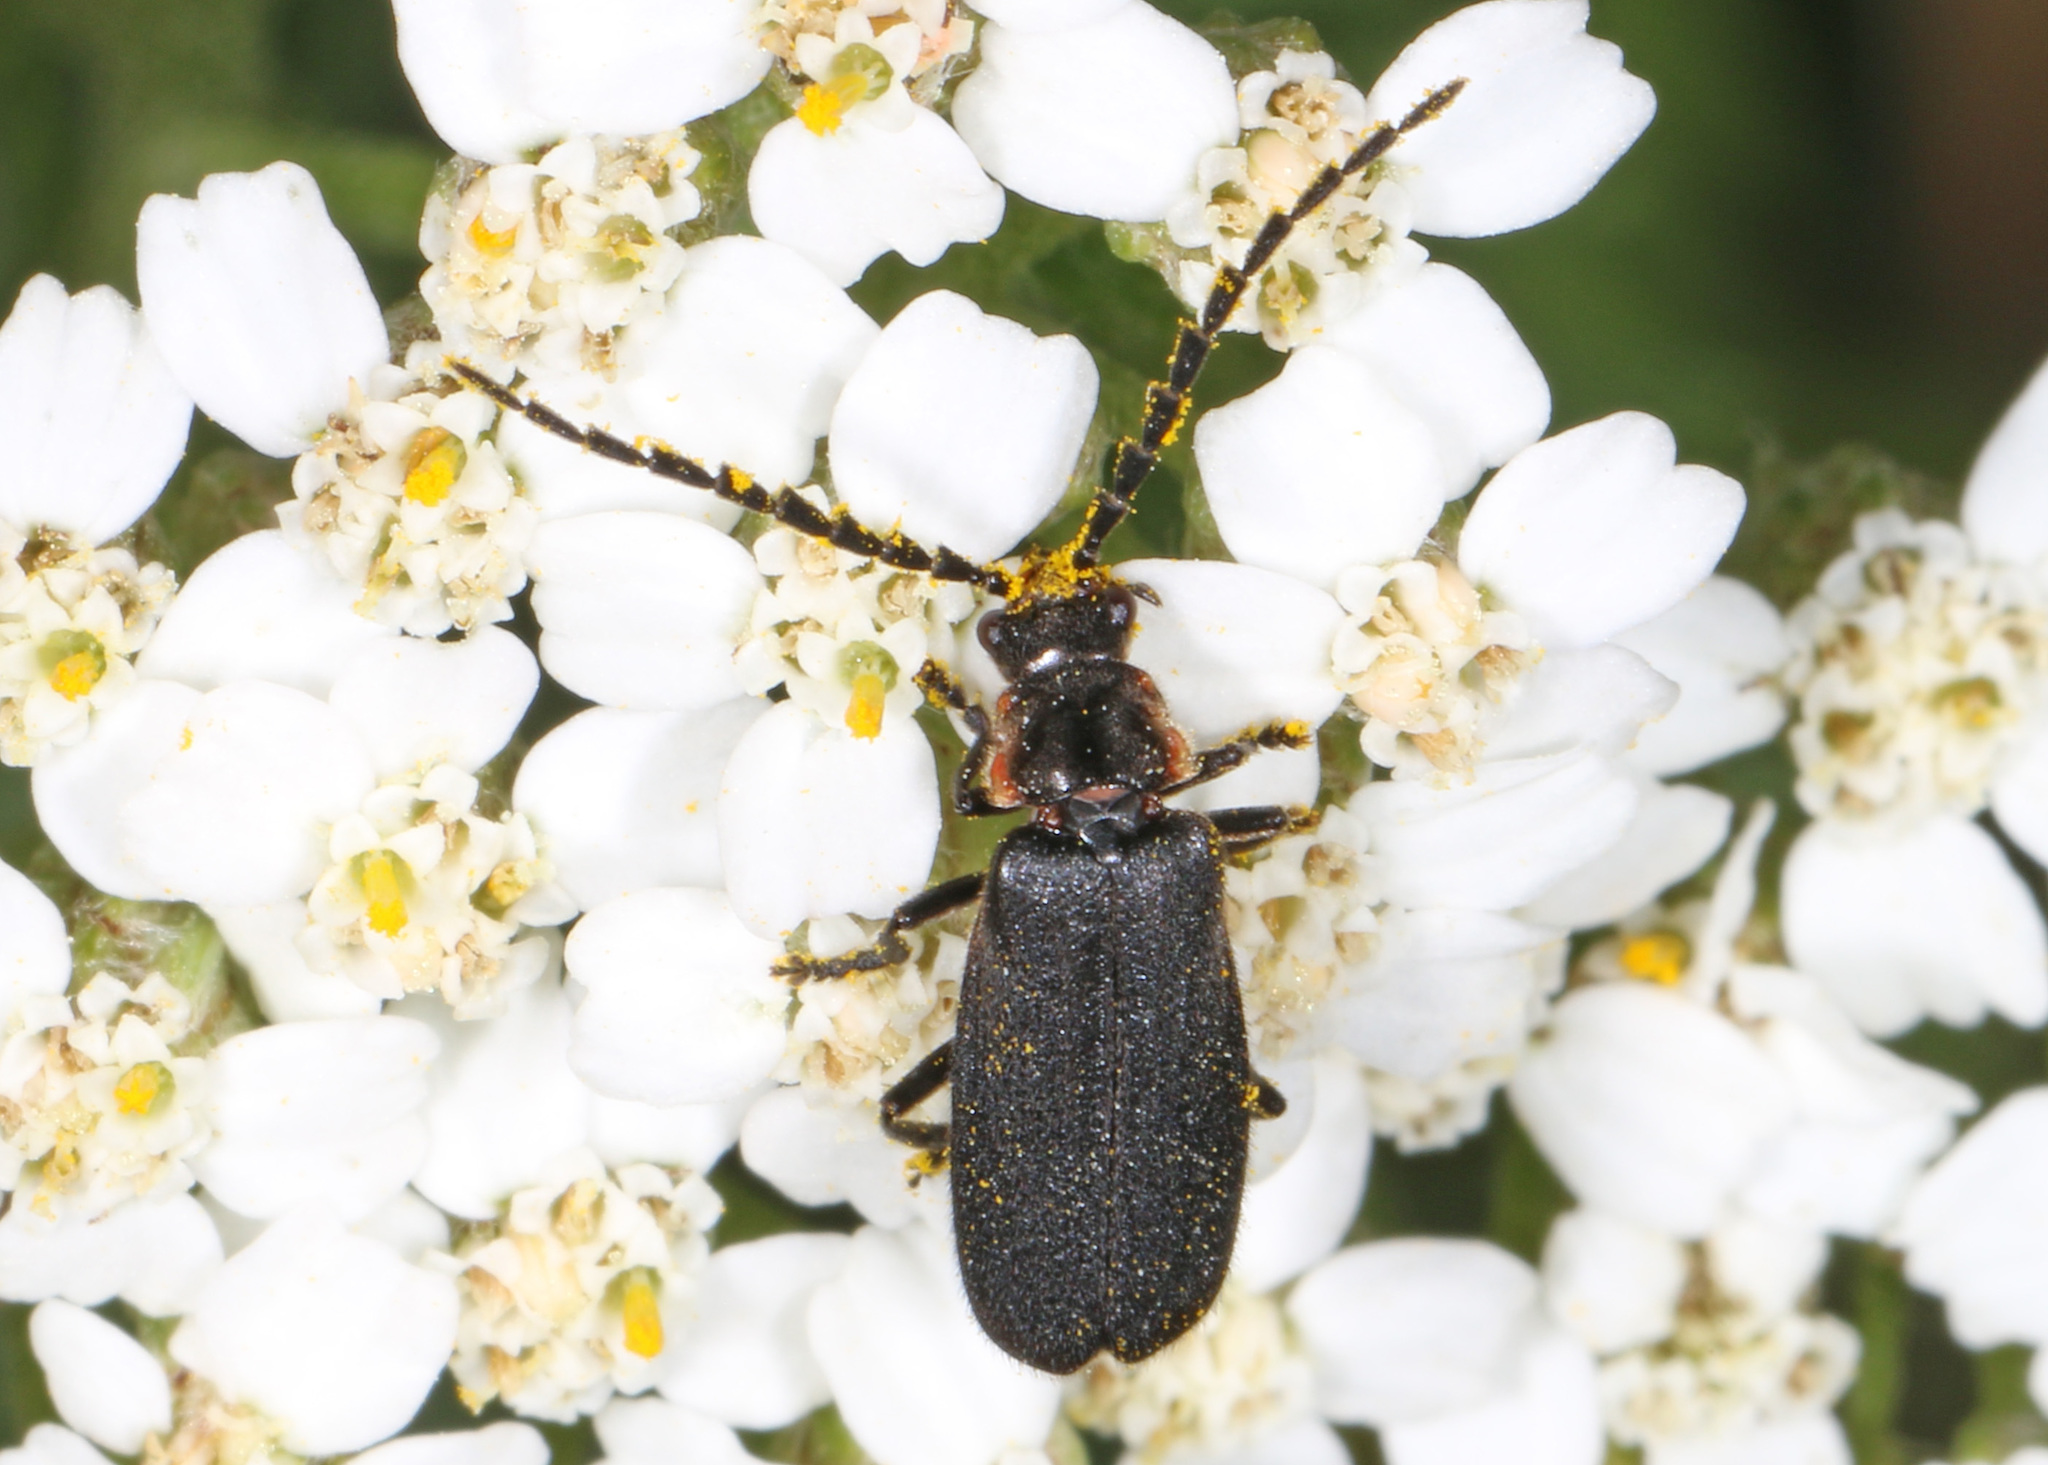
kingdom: Animalia
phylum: Arthropoda
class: Insecta
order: Coleoptera
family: Cantharidae
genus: Polemius
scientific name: Polemius laticornis
